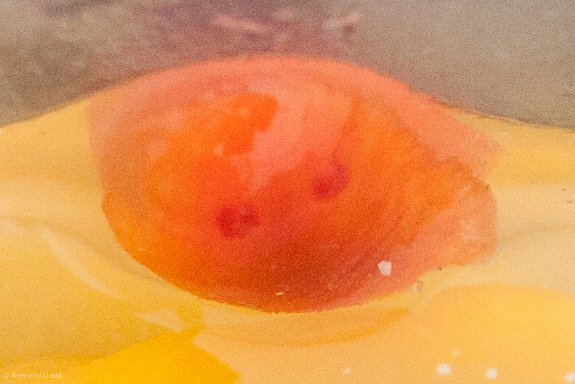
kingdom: Animalia
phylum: Mollusca
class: Gastropoda
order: Nudibranchia
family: Discodorididae
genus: Rostanga
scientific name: Rostanga pulchra
